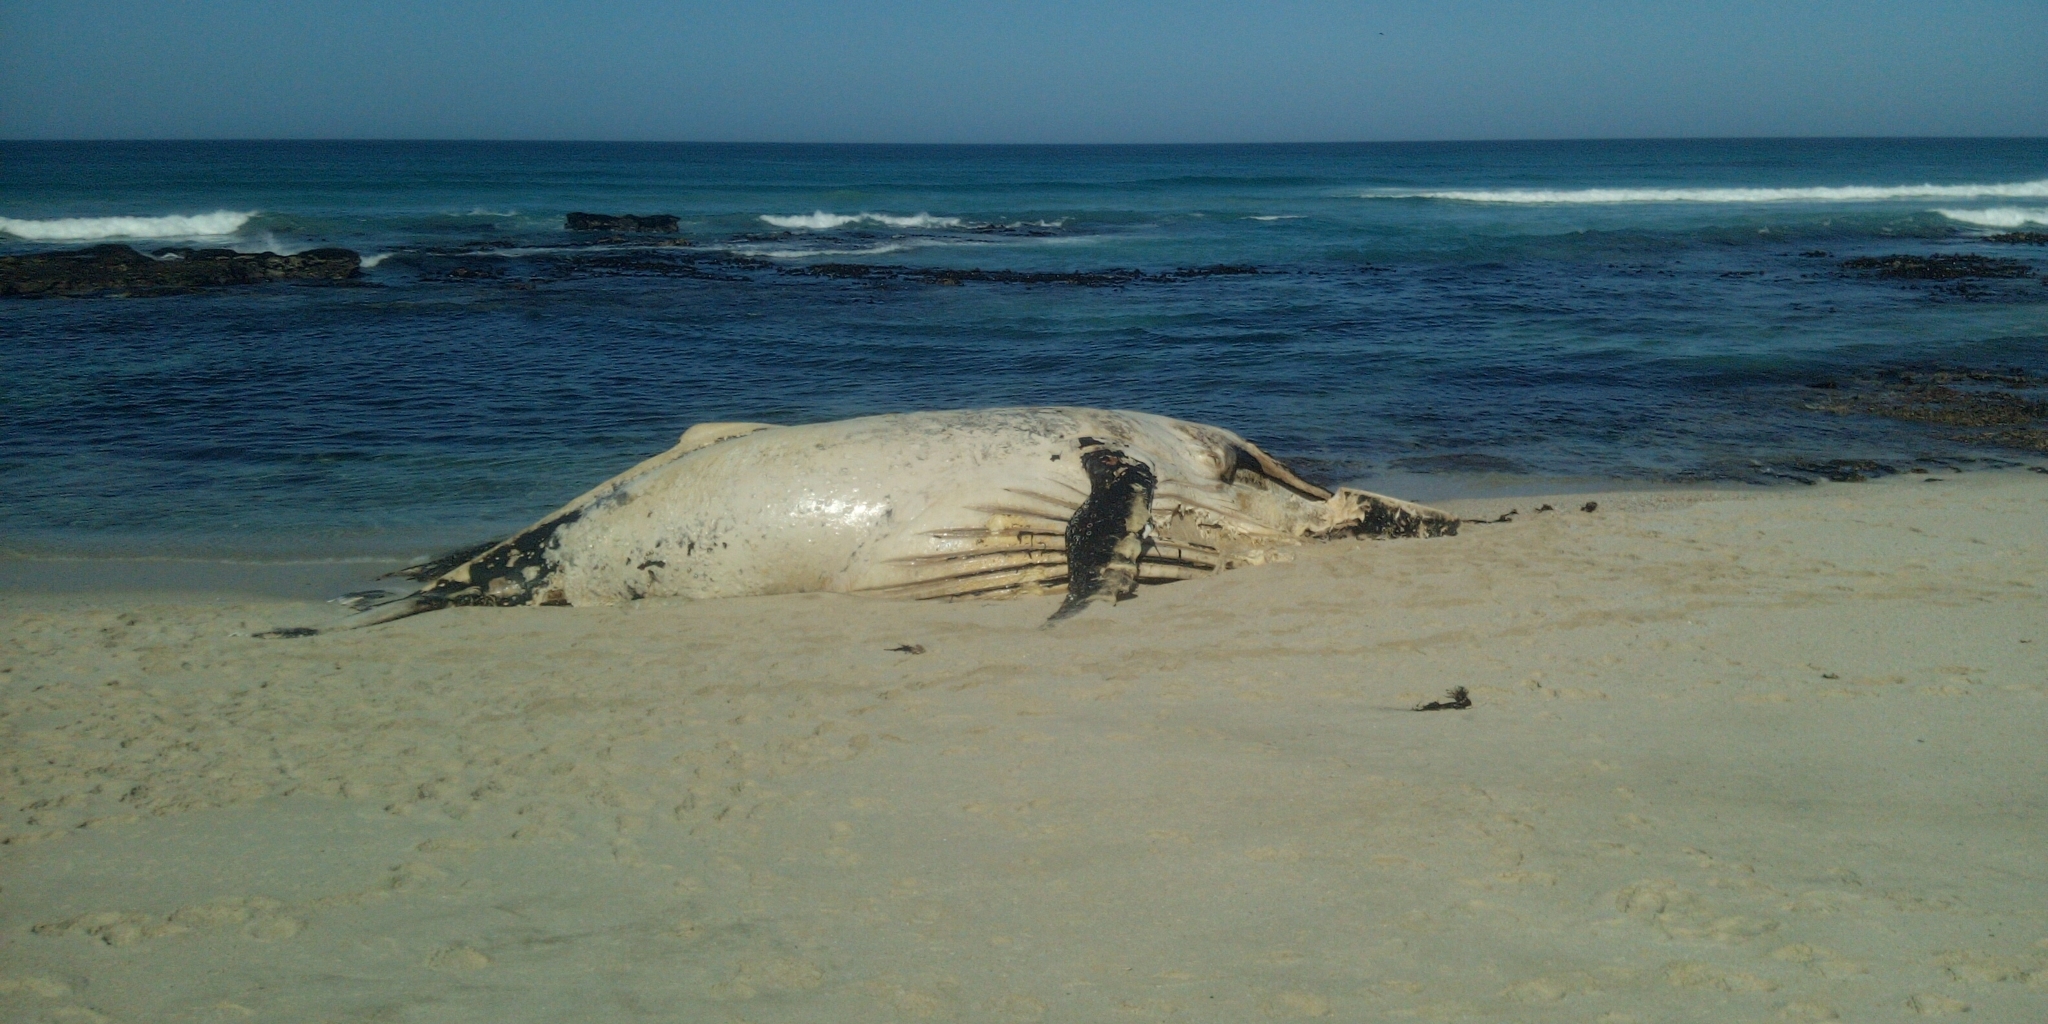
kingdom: Animalia
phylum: Chordata
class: Mammalia
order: Cetacea
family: Balaenopteridae
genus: Megaptera
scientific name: Megaptera novaeangliae
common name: Humpback whale
